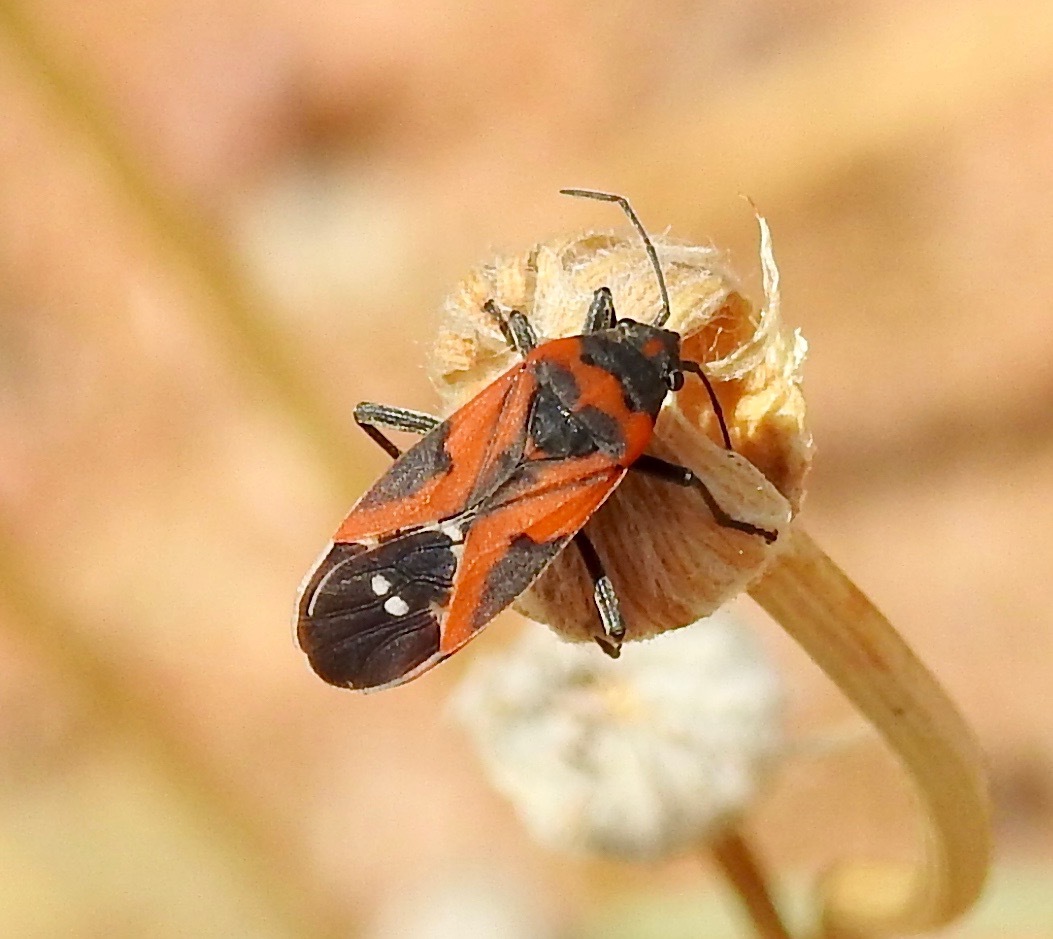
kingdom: Animalia
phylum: Arthropoda
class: Insecta
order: Hemiptera
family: Lygaeidae
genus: Lygaeus
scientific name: Lygaeus reclivatus
